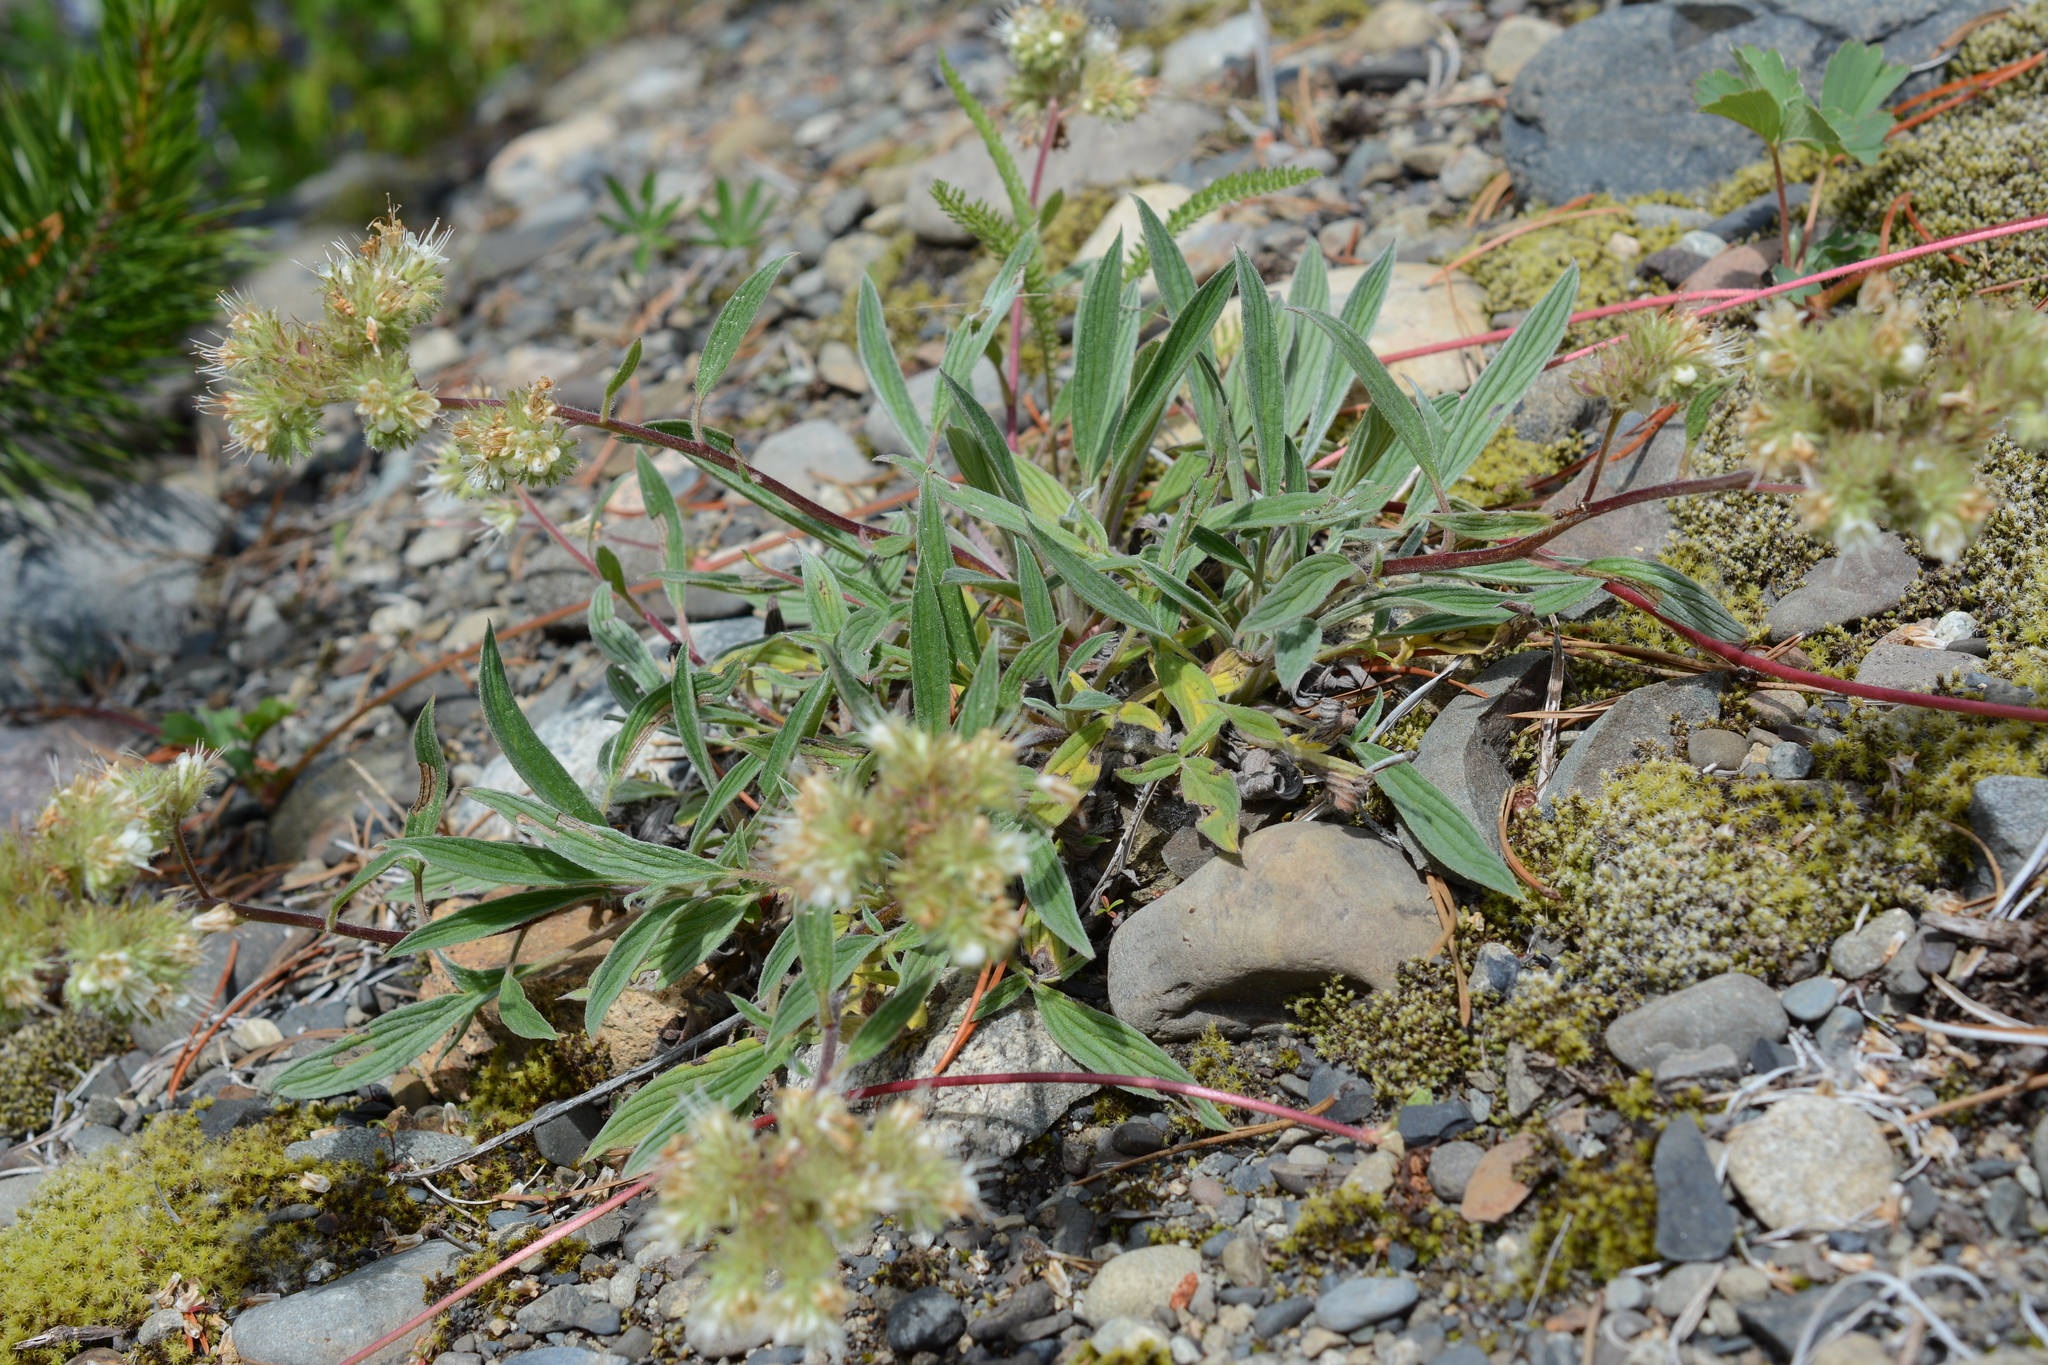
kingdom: Plantae
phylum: Tracheophyta
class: Magnoliopsida
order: Boraginales
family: Hydrophyllaceae
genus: Phacelia
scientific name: Phacelia hastata
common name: Silver-leaved phacelia
